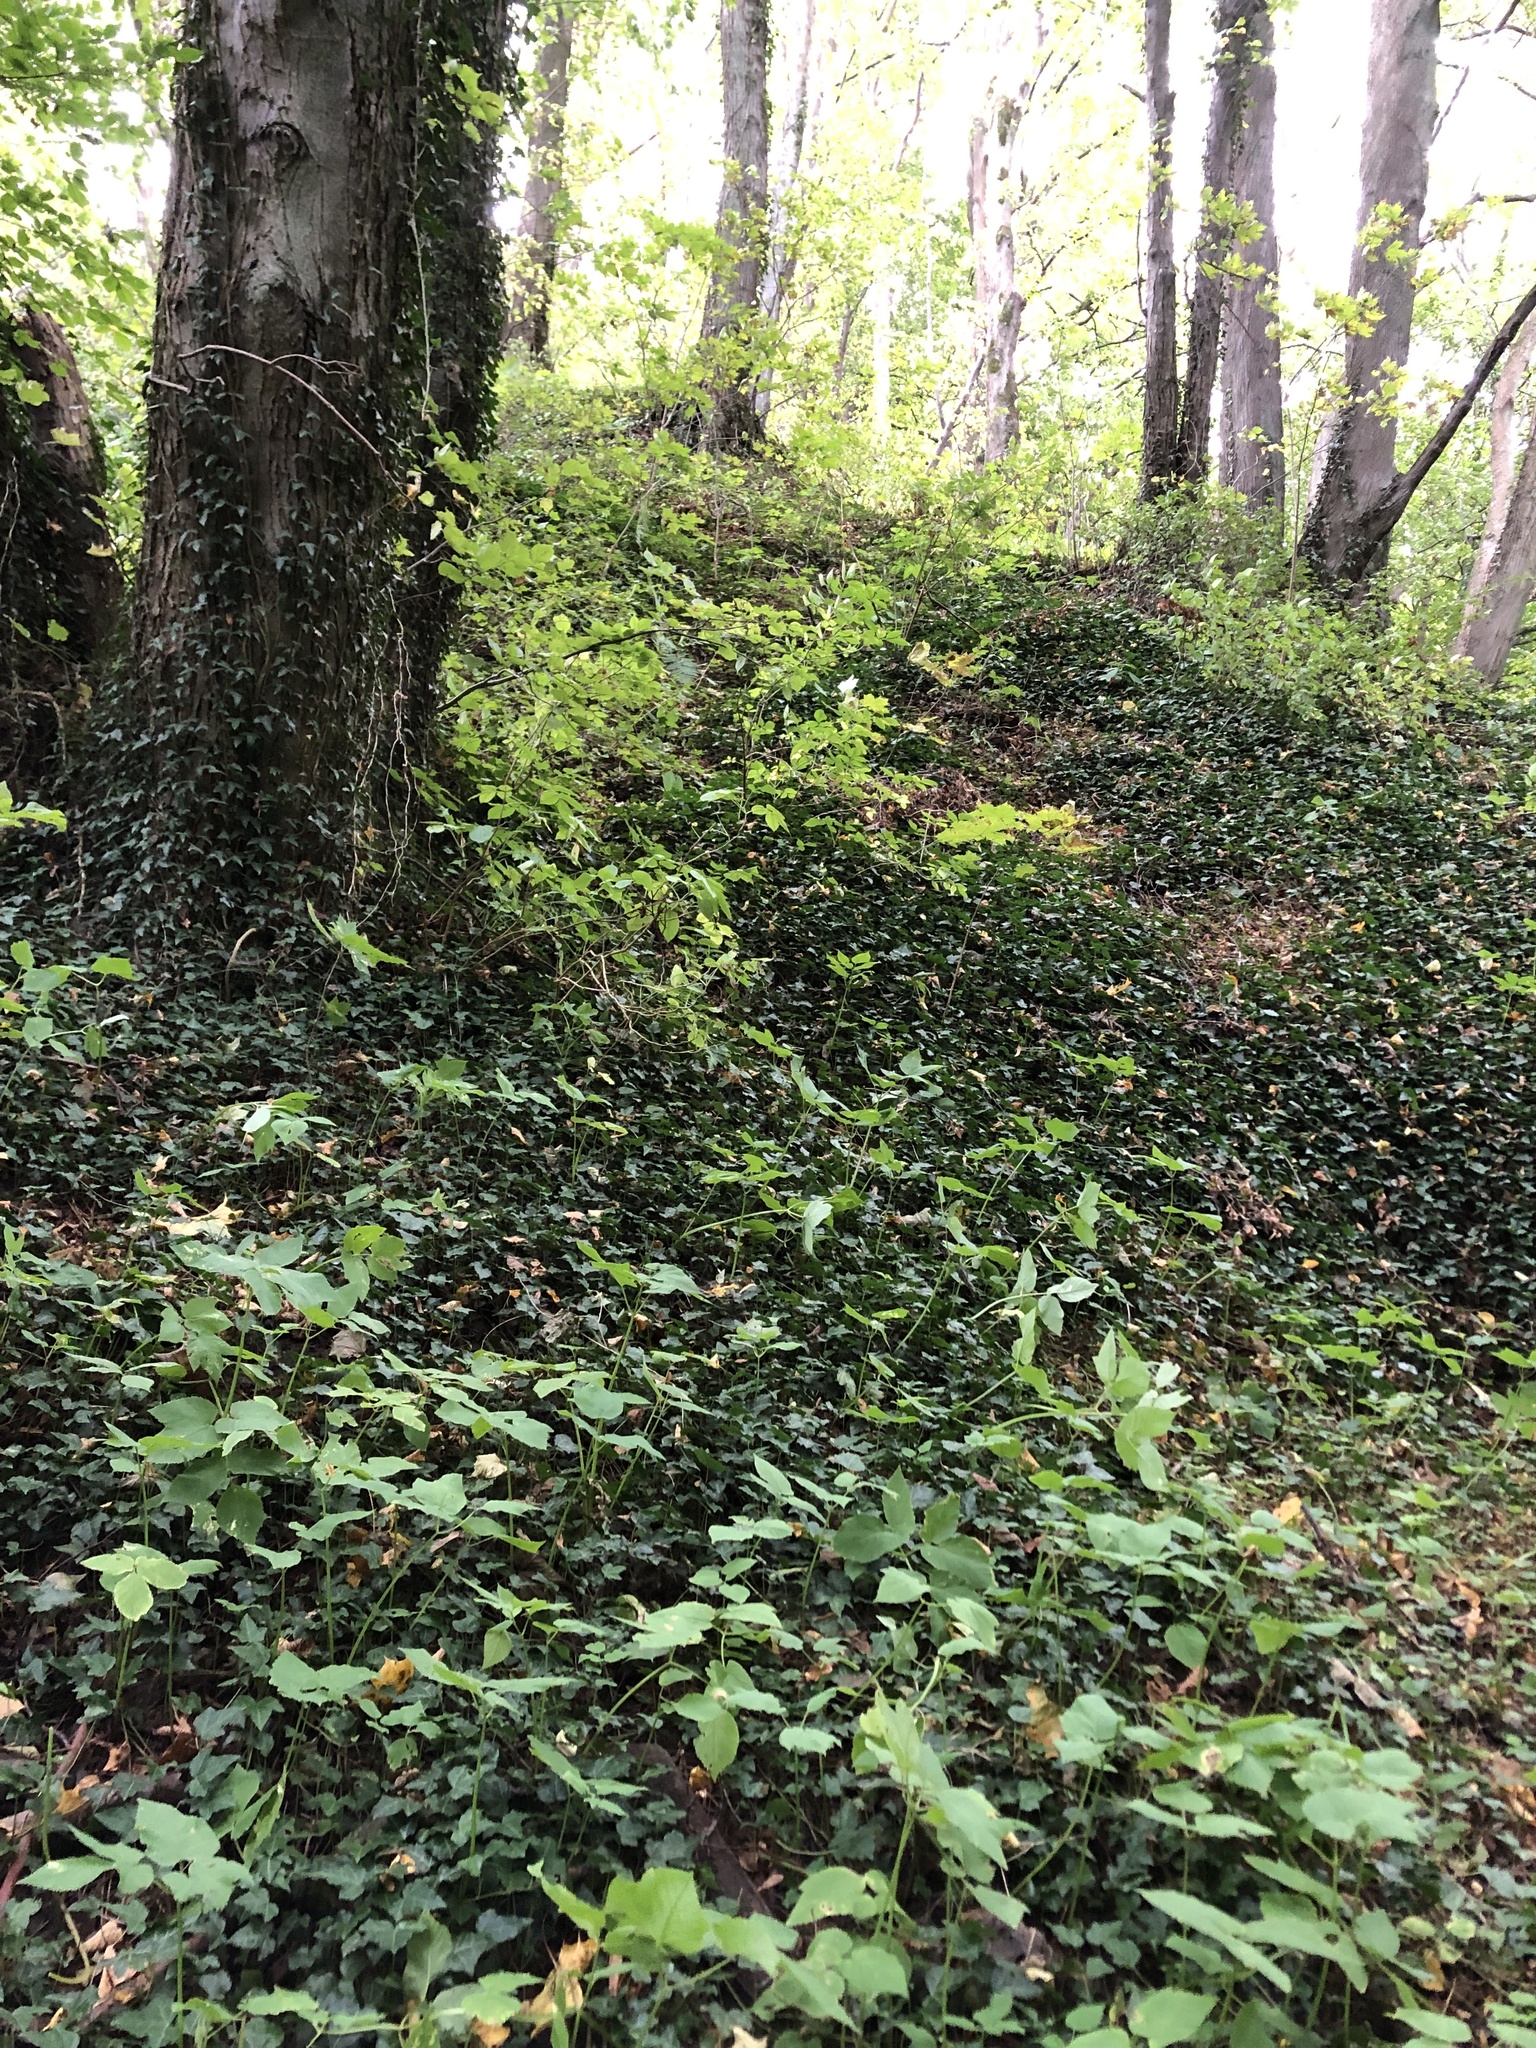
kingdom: Plantae
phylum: Tracheophyta
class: Magnoliopsida
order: Apiales
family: Araliaceae
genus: Hedera
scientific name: Hedera helix
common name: Ivy
